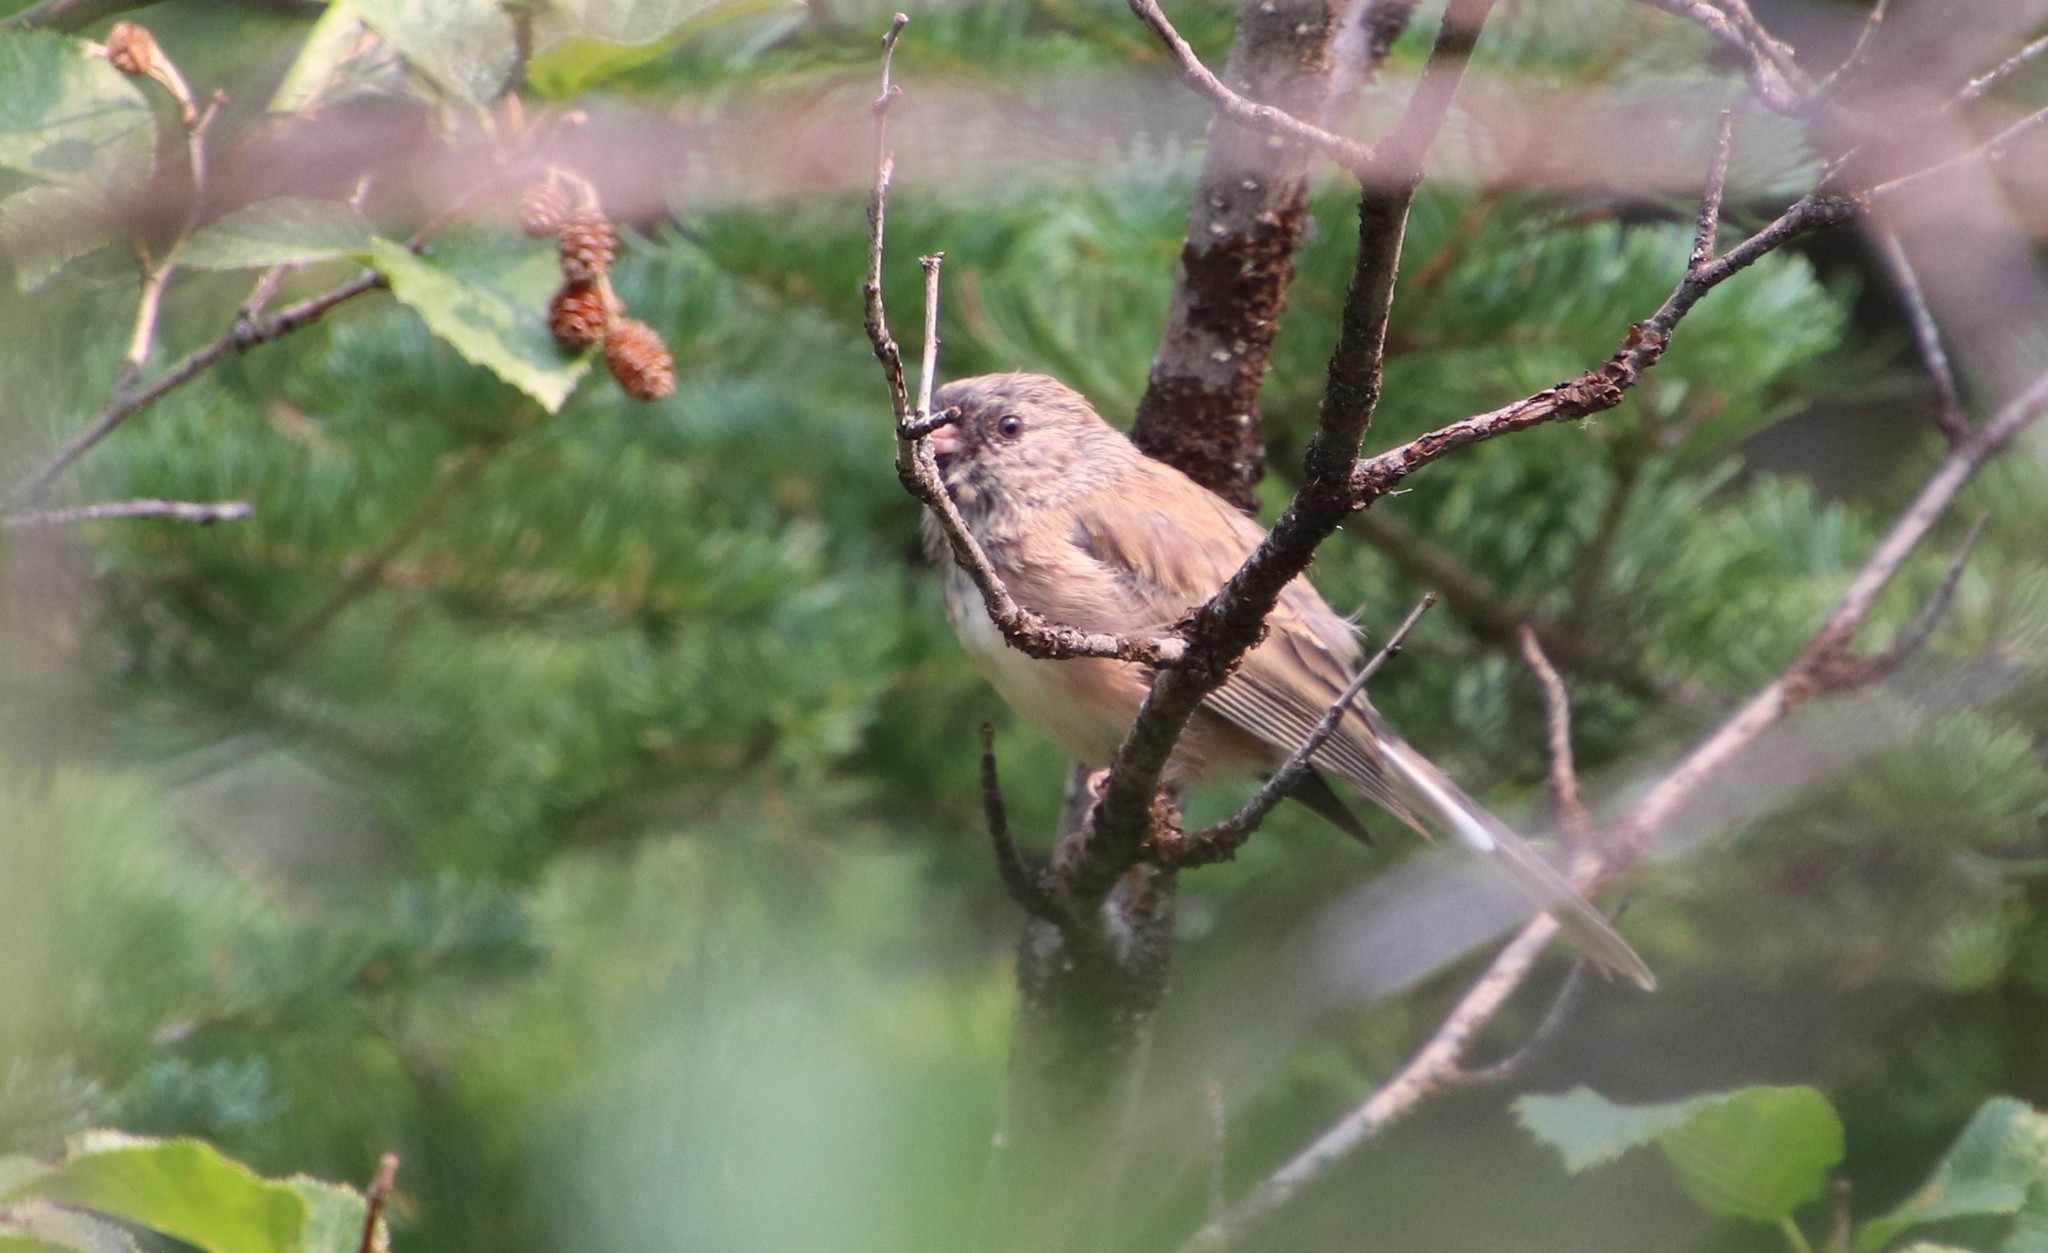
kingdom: Animalia
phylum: Chordata
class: Aves
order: Passeriformes
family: Passerellidae
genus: Junco
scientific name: Junco hyemalis
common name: Dark-eyed junco
